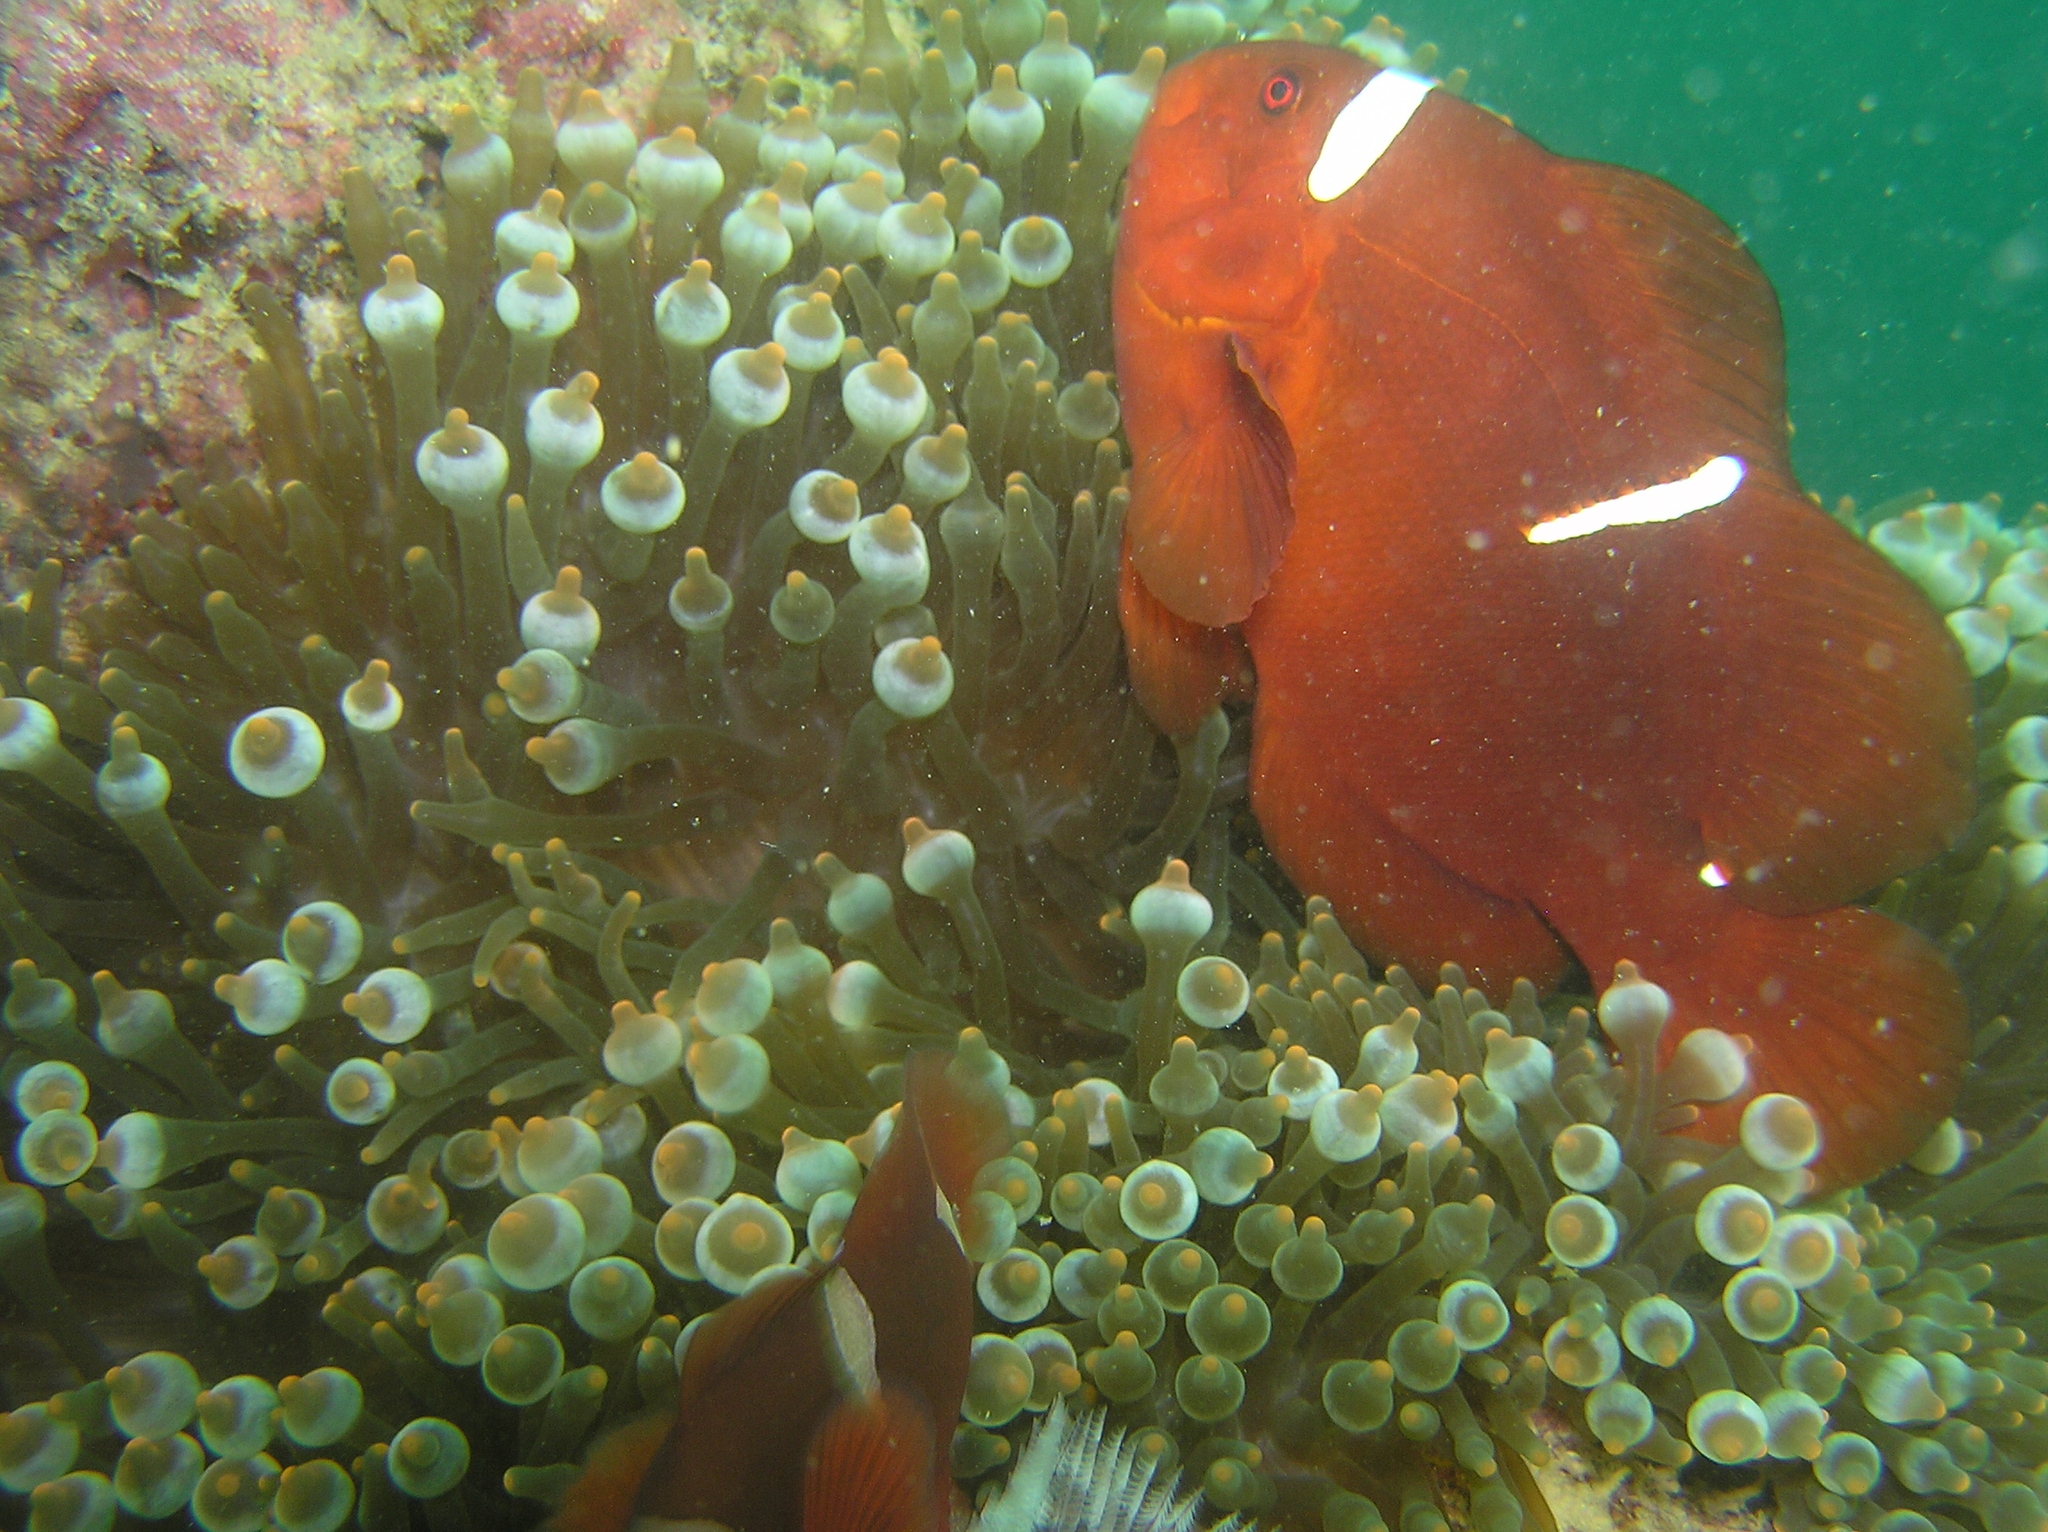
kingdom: Animalia
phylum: Chordata
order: Perciformes
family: Pomacentridae
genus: Premnas
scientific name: Premnas biaculeatus
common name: Spinecheek anemonefish
